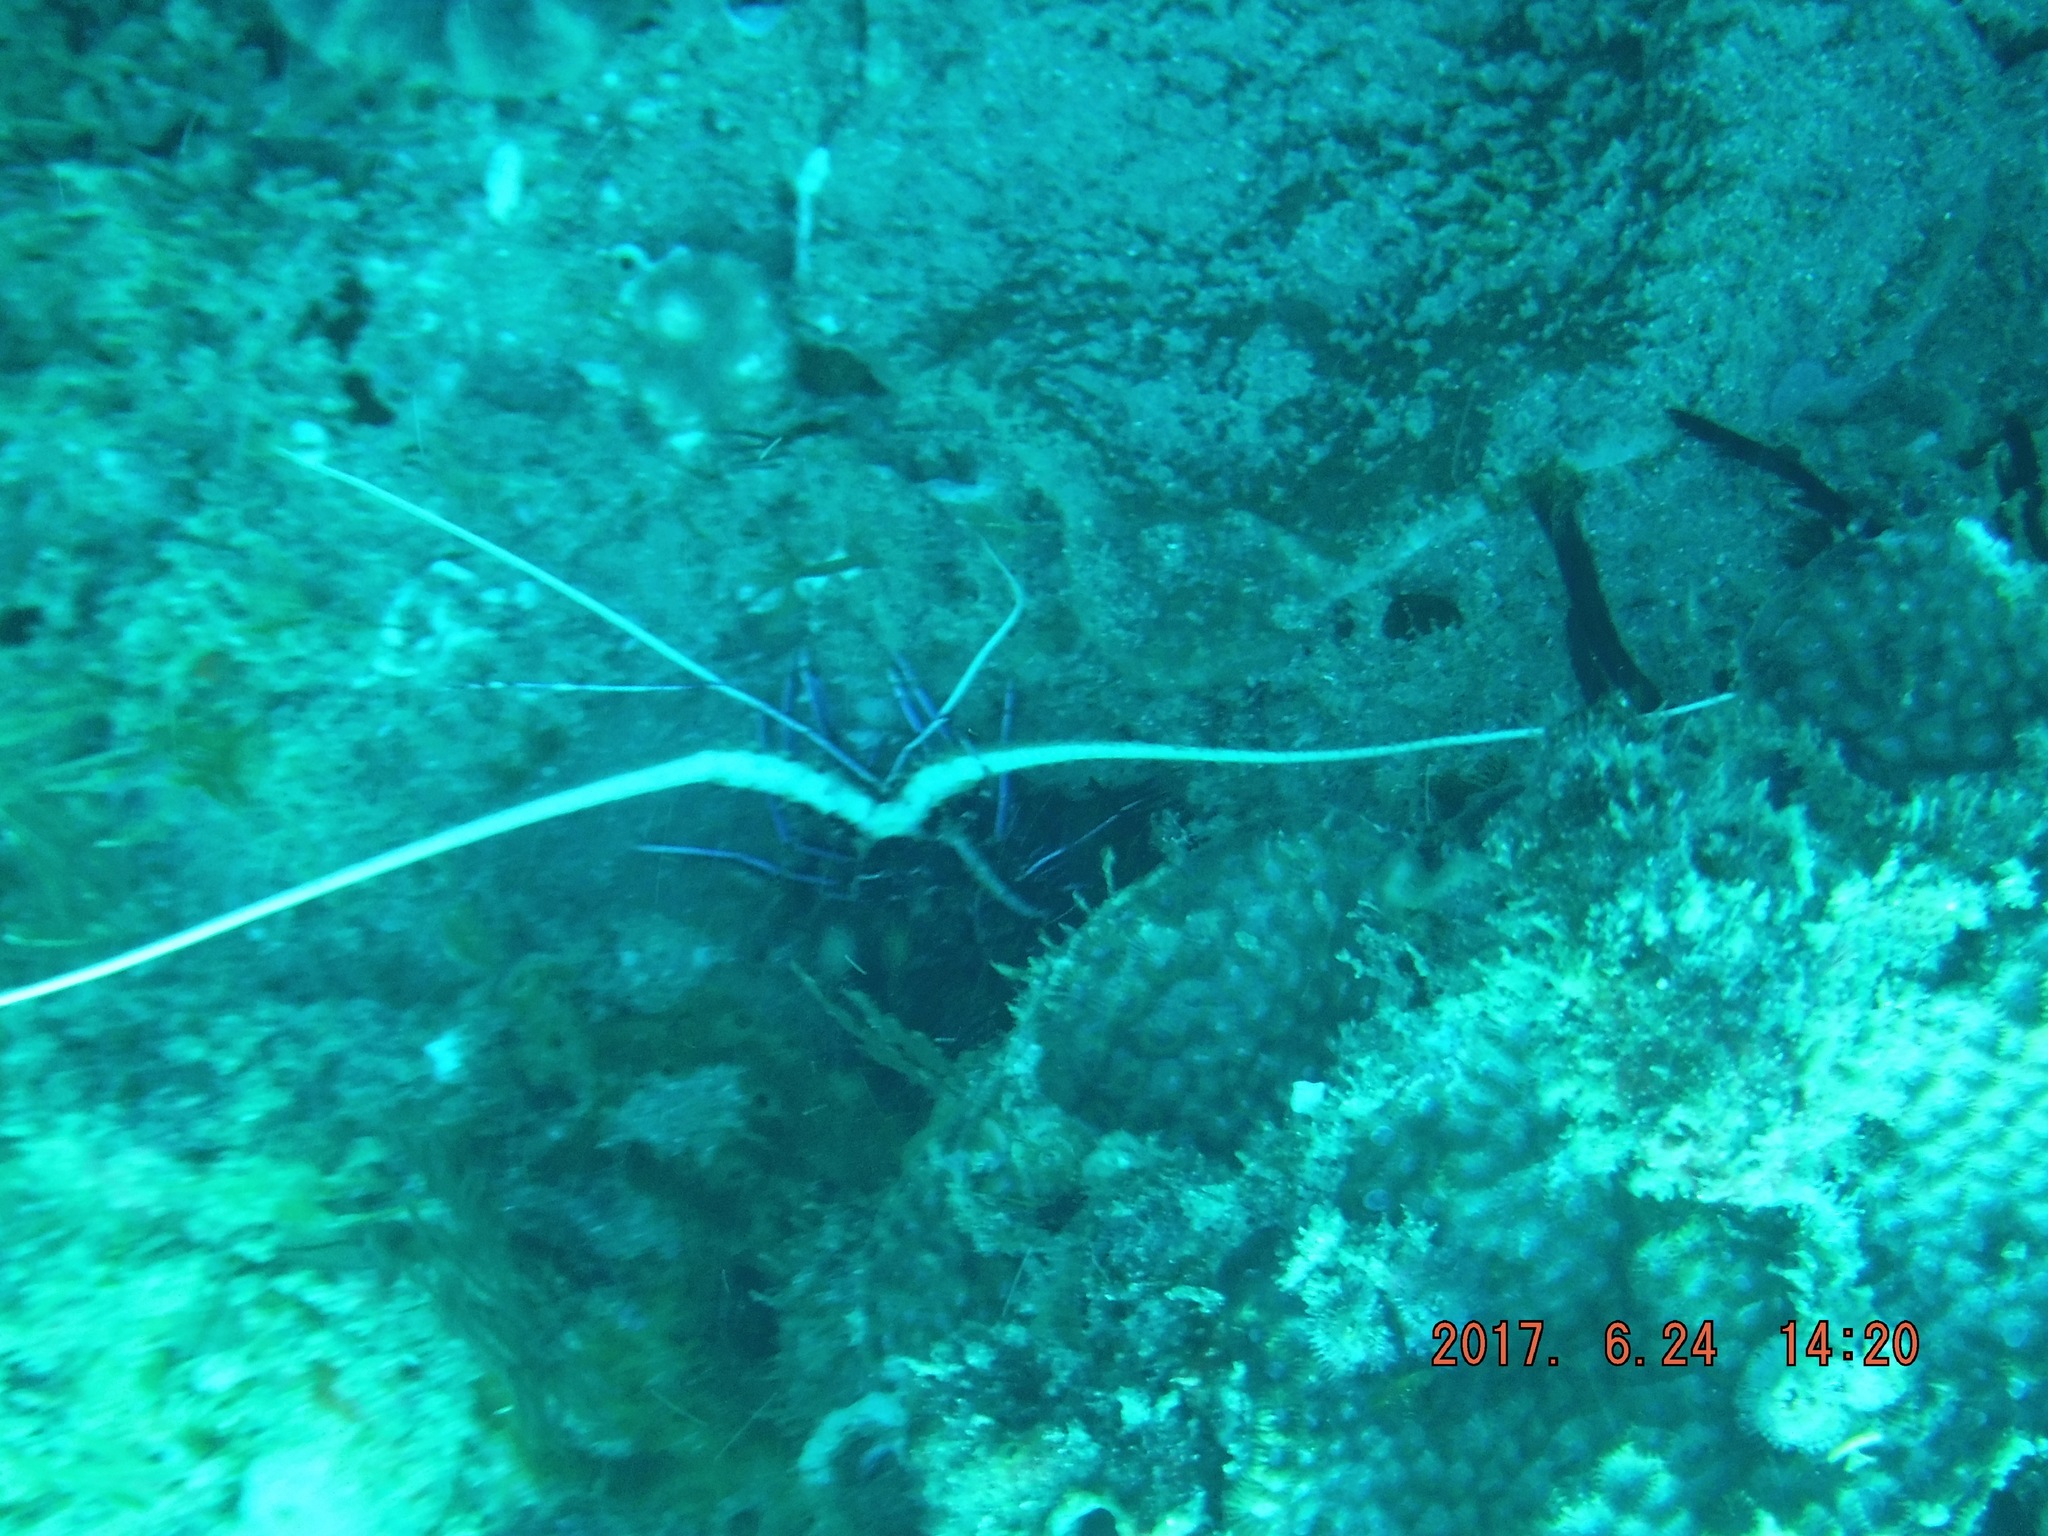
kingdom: Animalia
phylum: Arthropoda
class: Malacostraca
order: Decapoda
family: Palinuridae
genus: Panulirus
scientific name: Panulirus versicolor
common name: Painted spiny lobster
